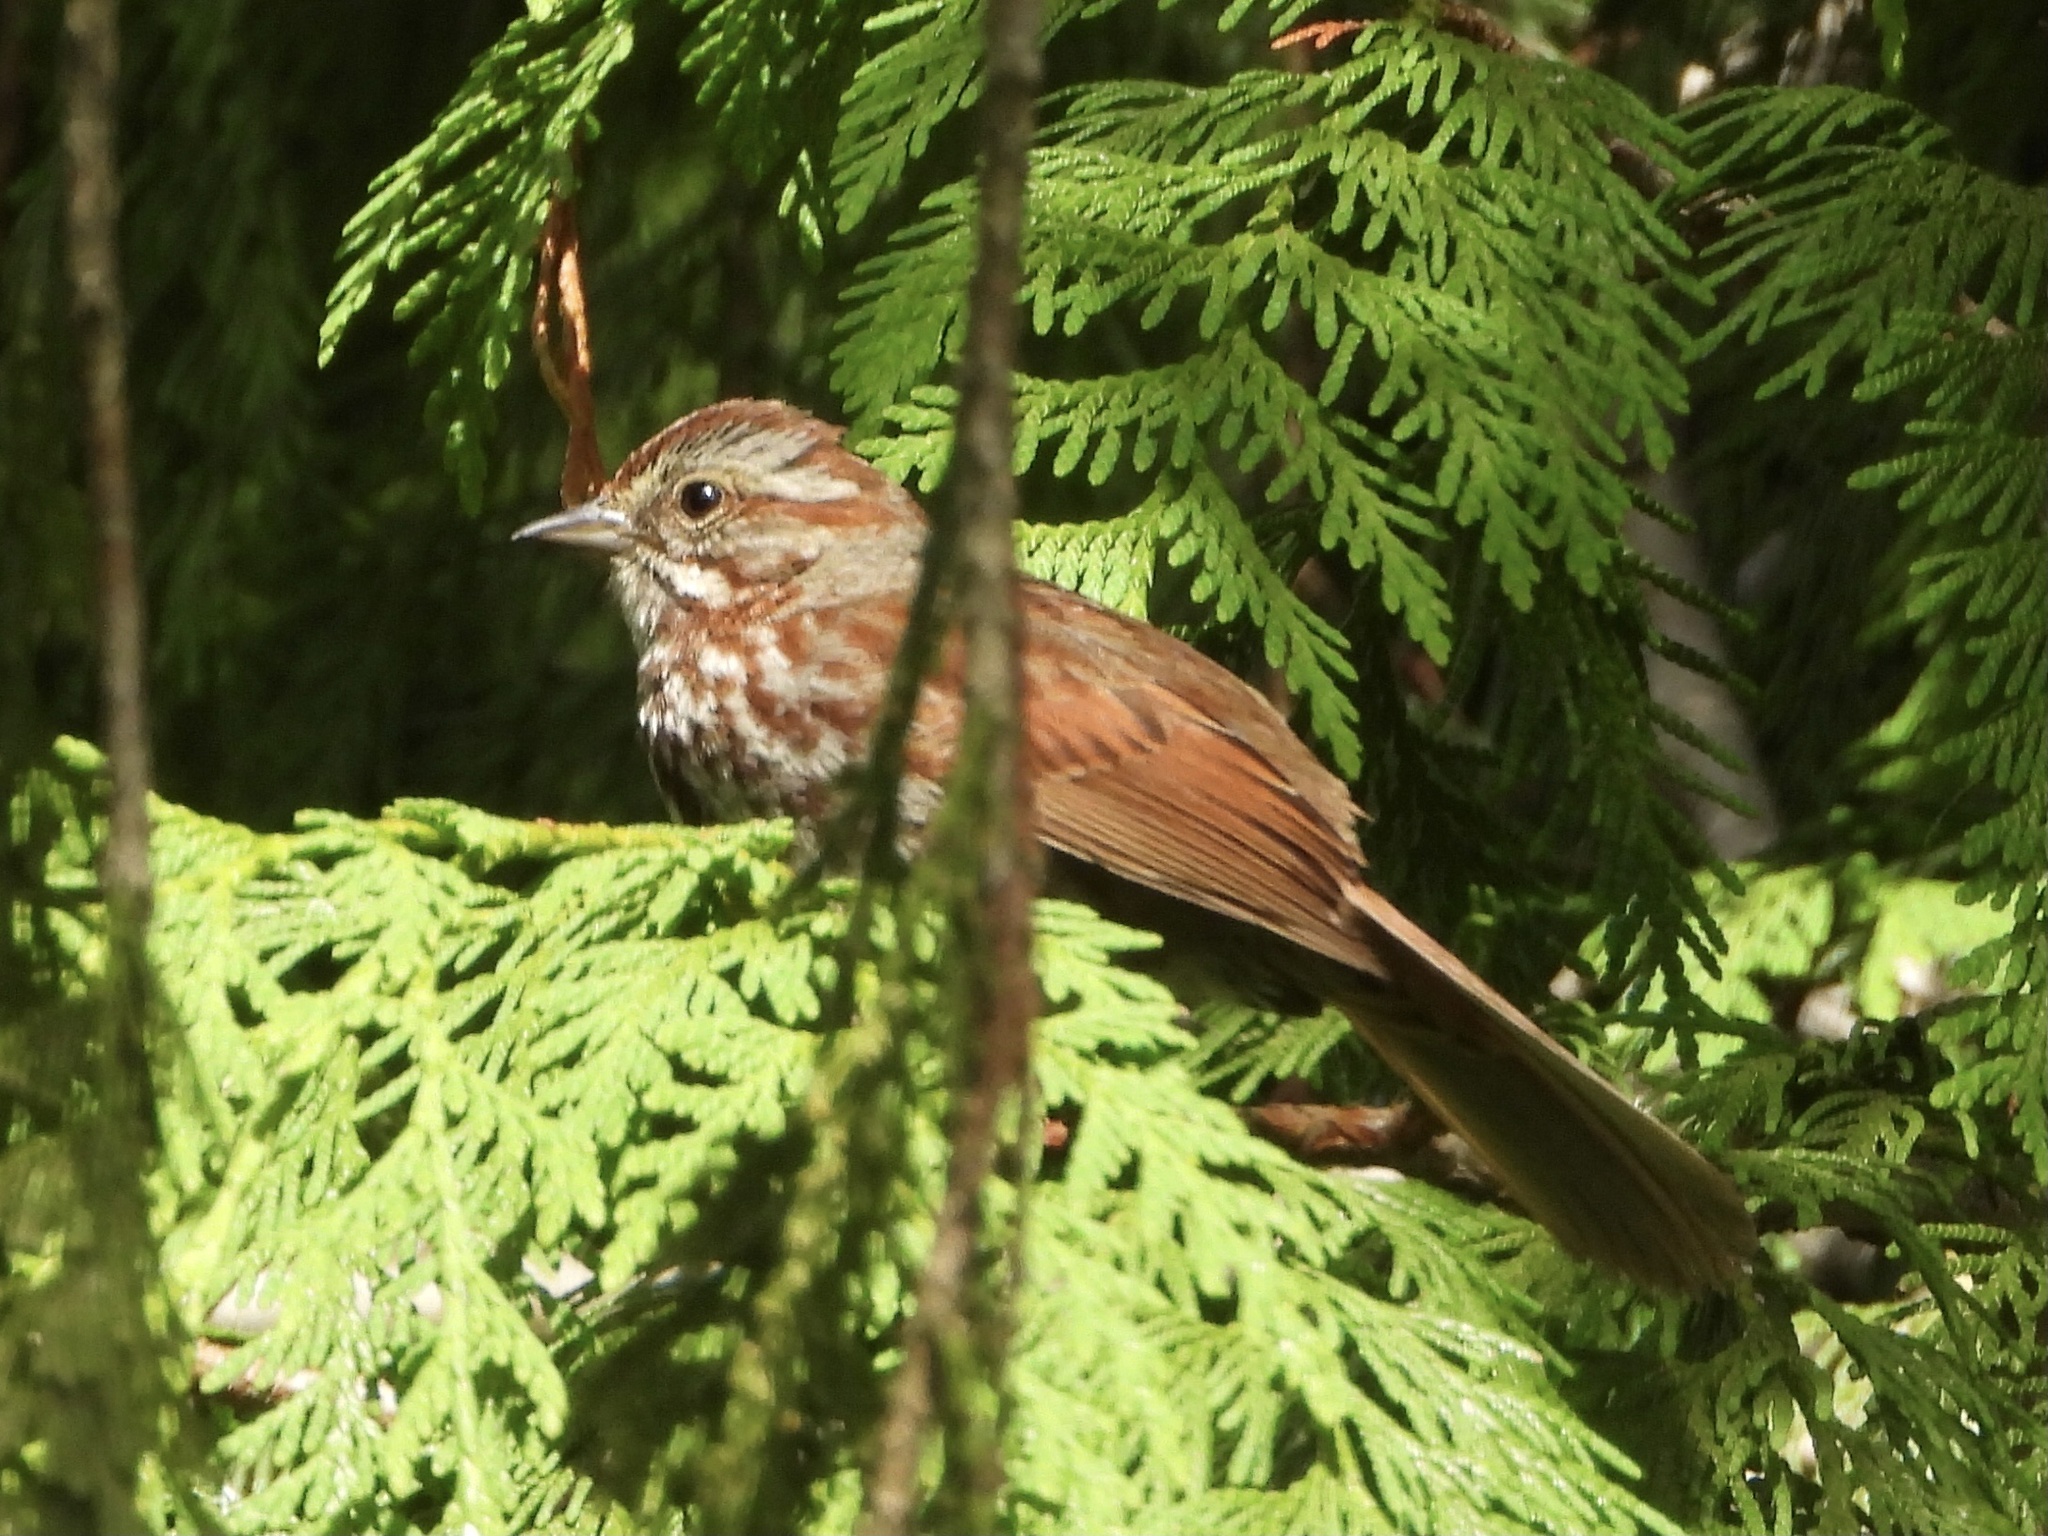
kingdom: Animalia
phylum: Chordata
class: Aves
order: Passeriformes
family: Passerellidae
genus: Melospiza
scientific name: Melospiza melodia
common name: Song sparrow
